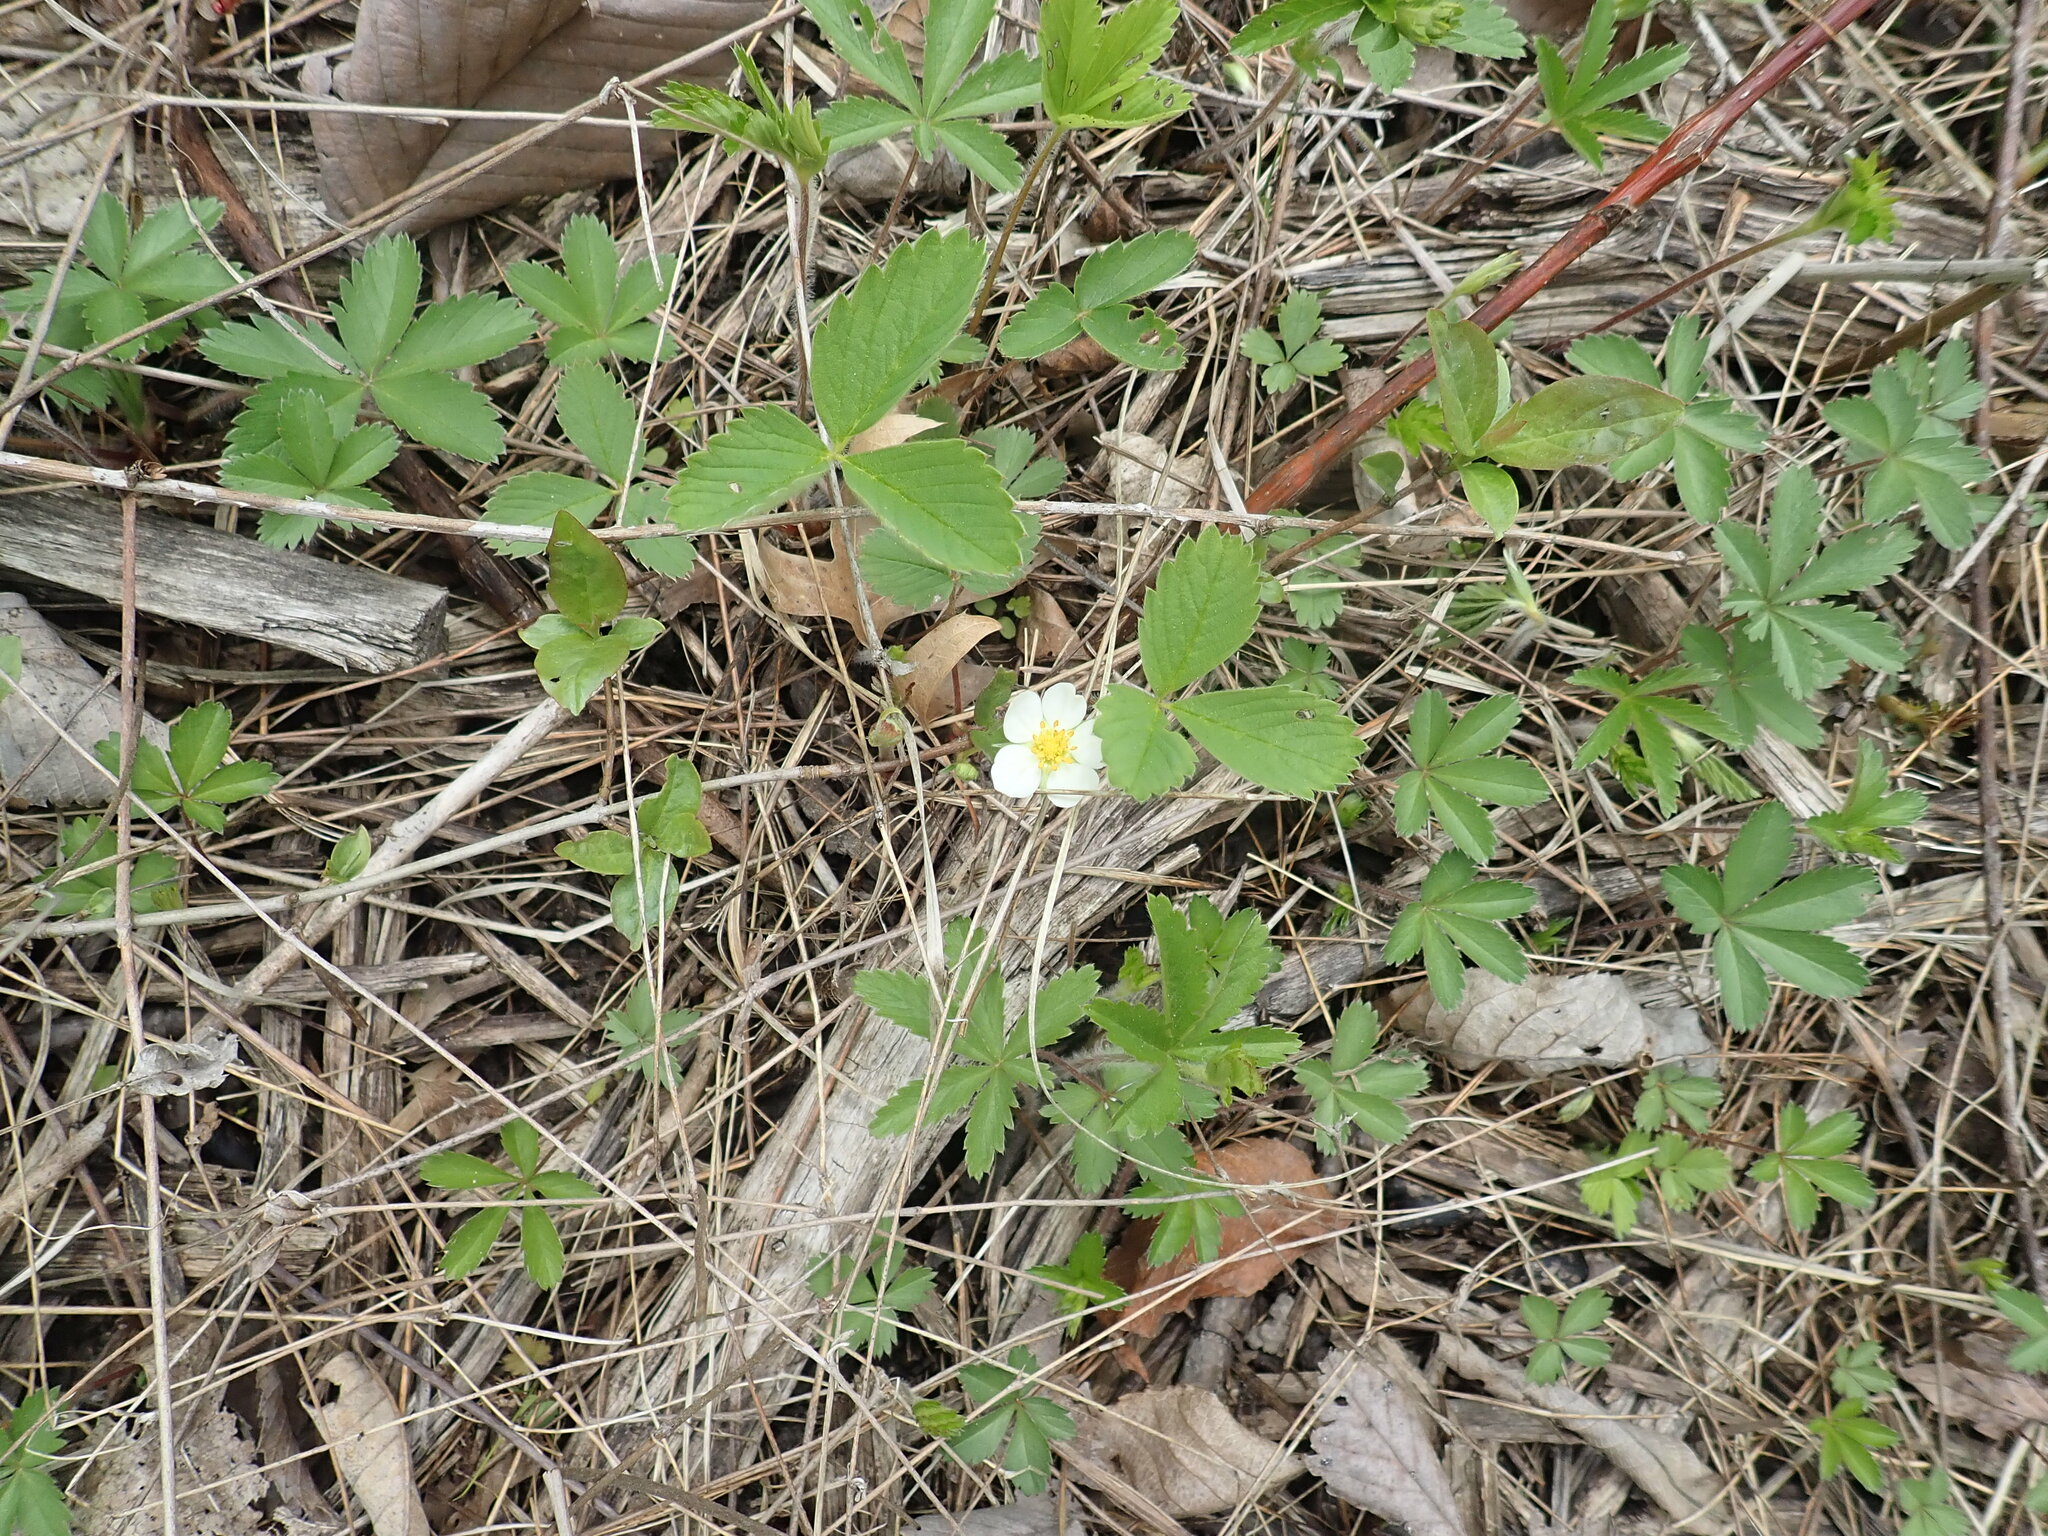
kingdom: Plantae
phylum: Tracheophyta
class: Magnoliopsida
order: Rosales
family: Rosaceae
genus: Fragaria
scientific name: Fragaria virginiana
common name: Thickleaved wild strawberry
